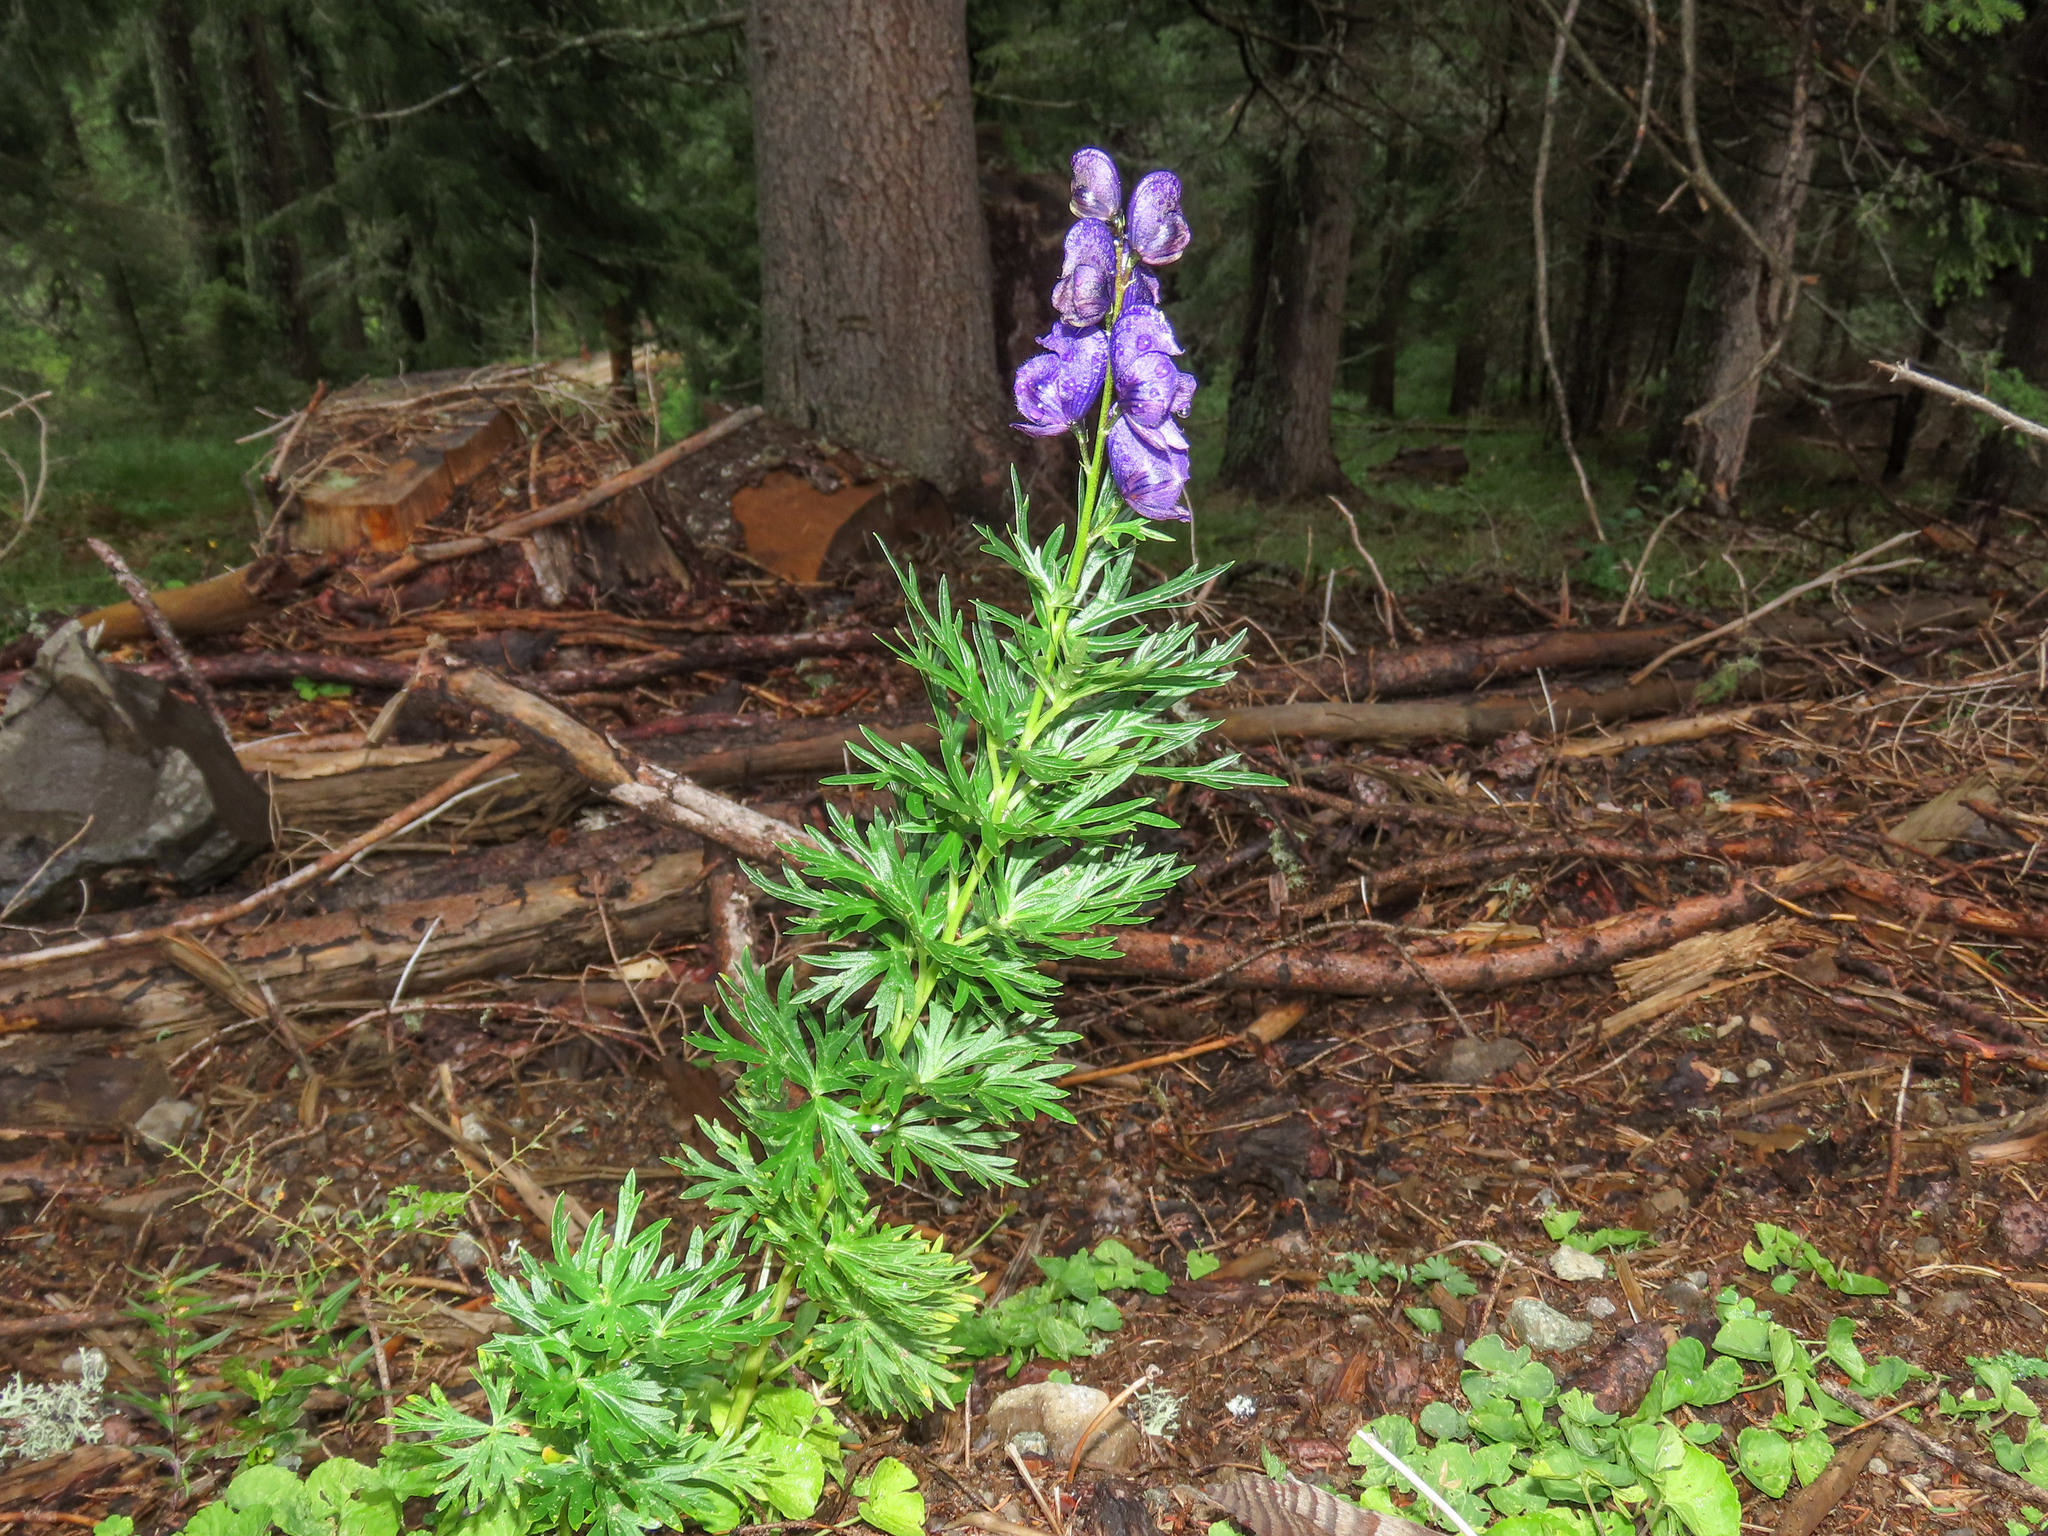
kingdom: Plantae
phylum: Tracheophyta
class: Magnoliopsida
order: Ranunculales
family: Ranunculaceae
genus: Aconitum
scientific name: Aconitum tauricum
